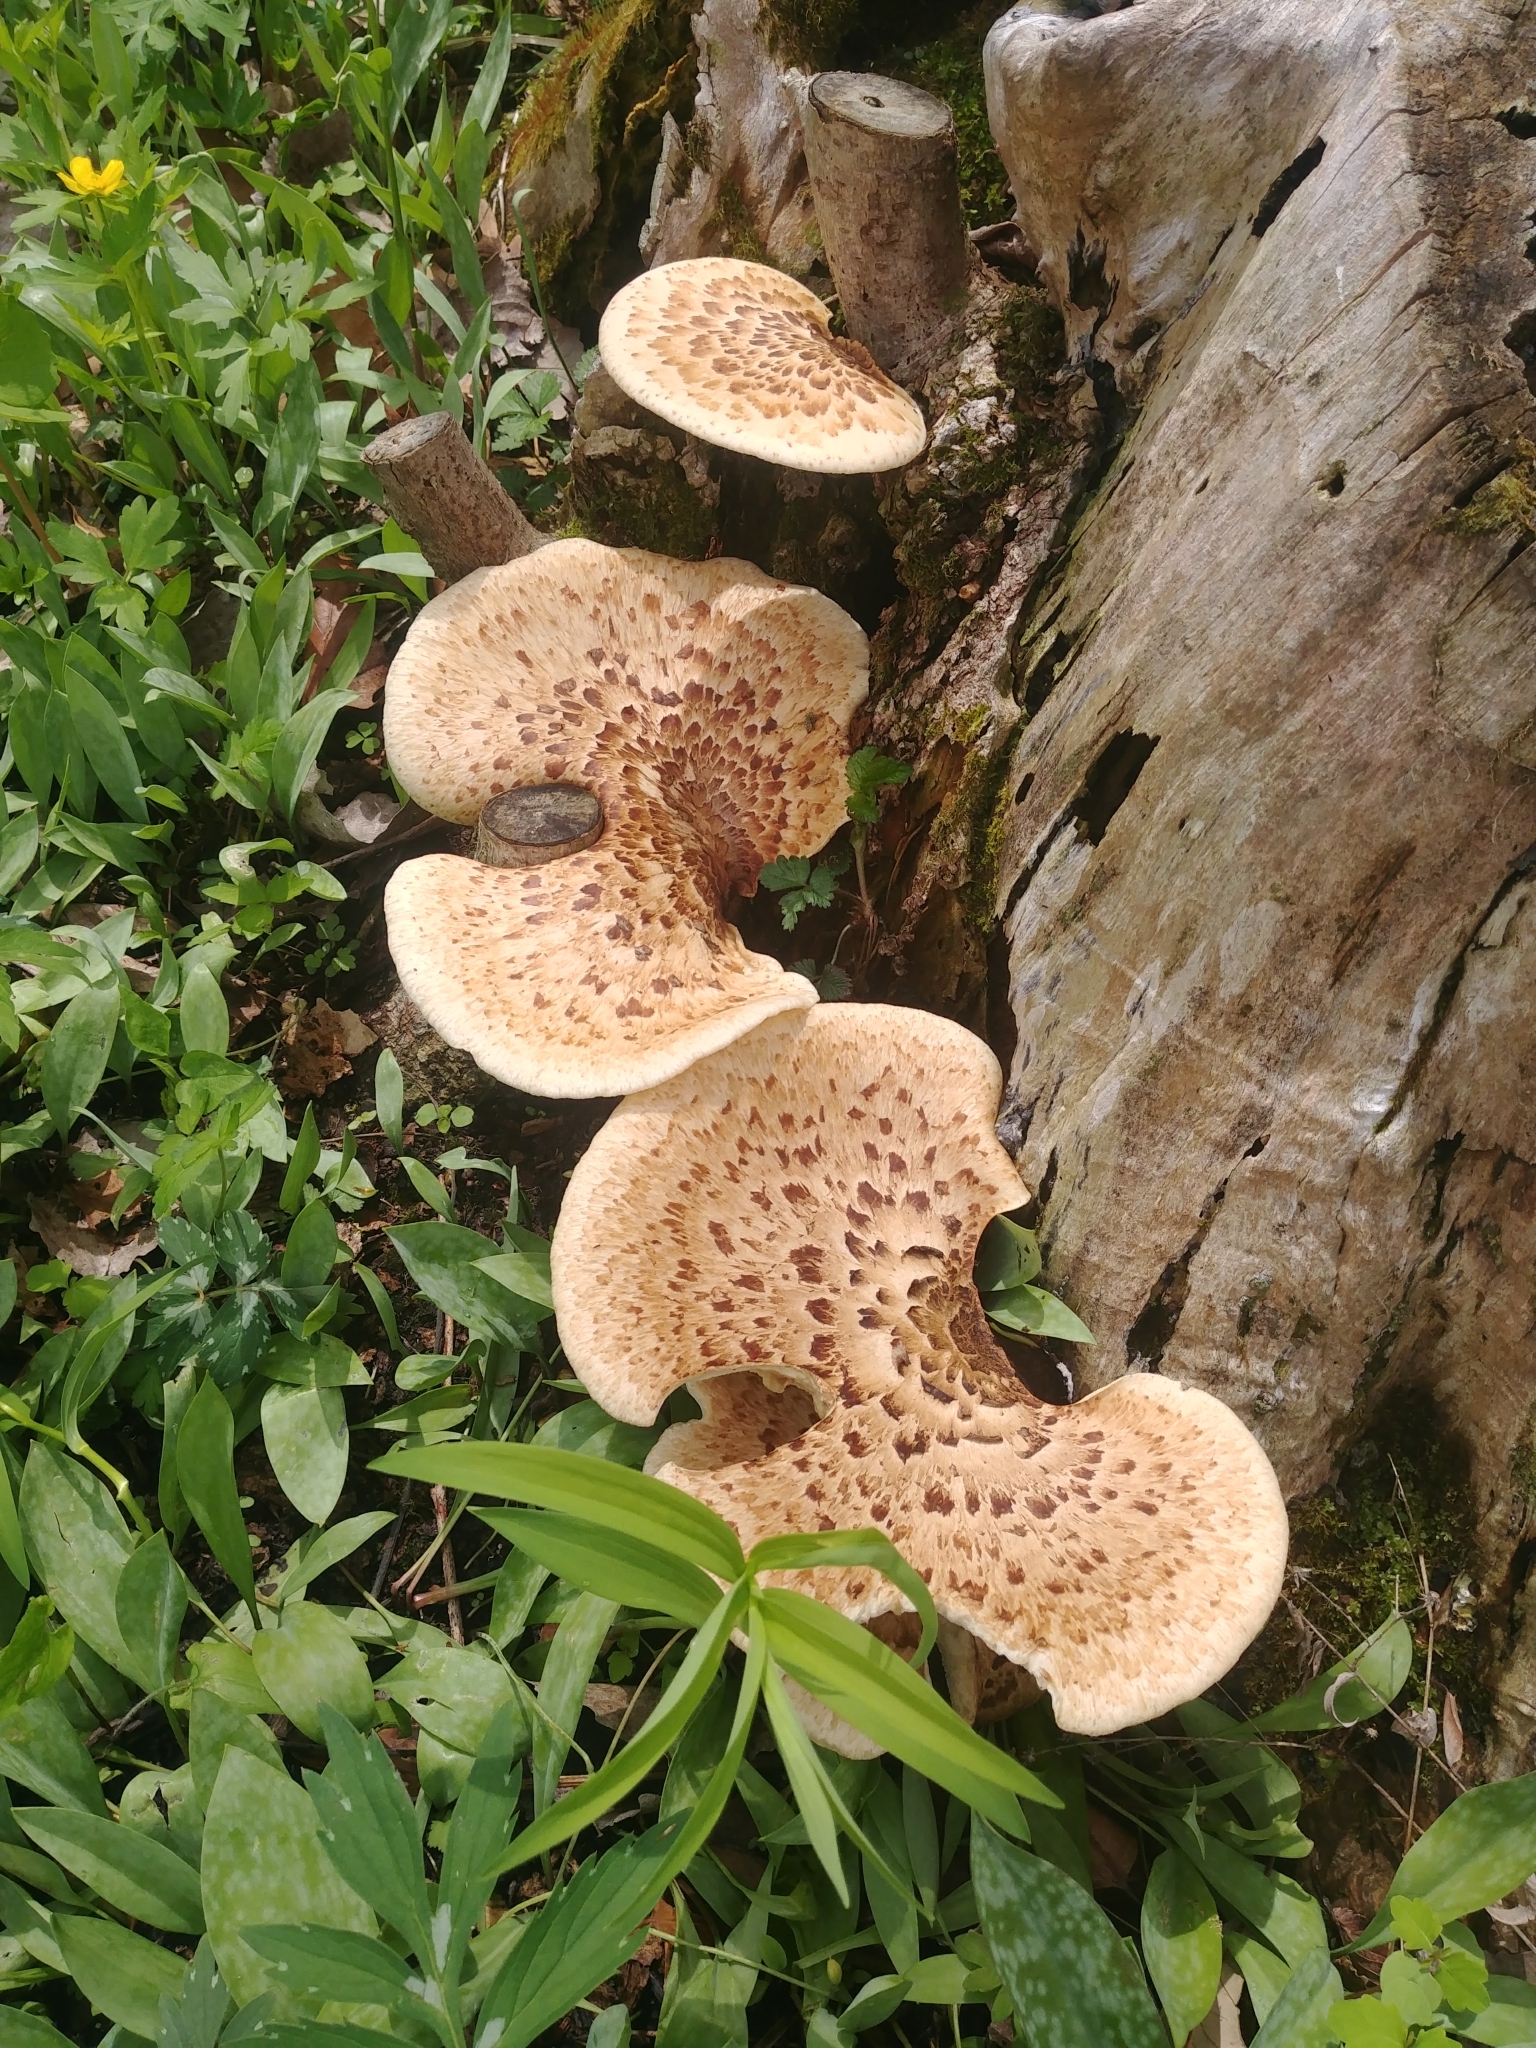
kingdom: Fungi
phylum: Basidiomycota
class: Agaricomycetes
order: Polyporales
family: Polyporaceae
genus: Cerioporus
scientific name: Cerioporus squamosus
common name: Dryad's saddle
